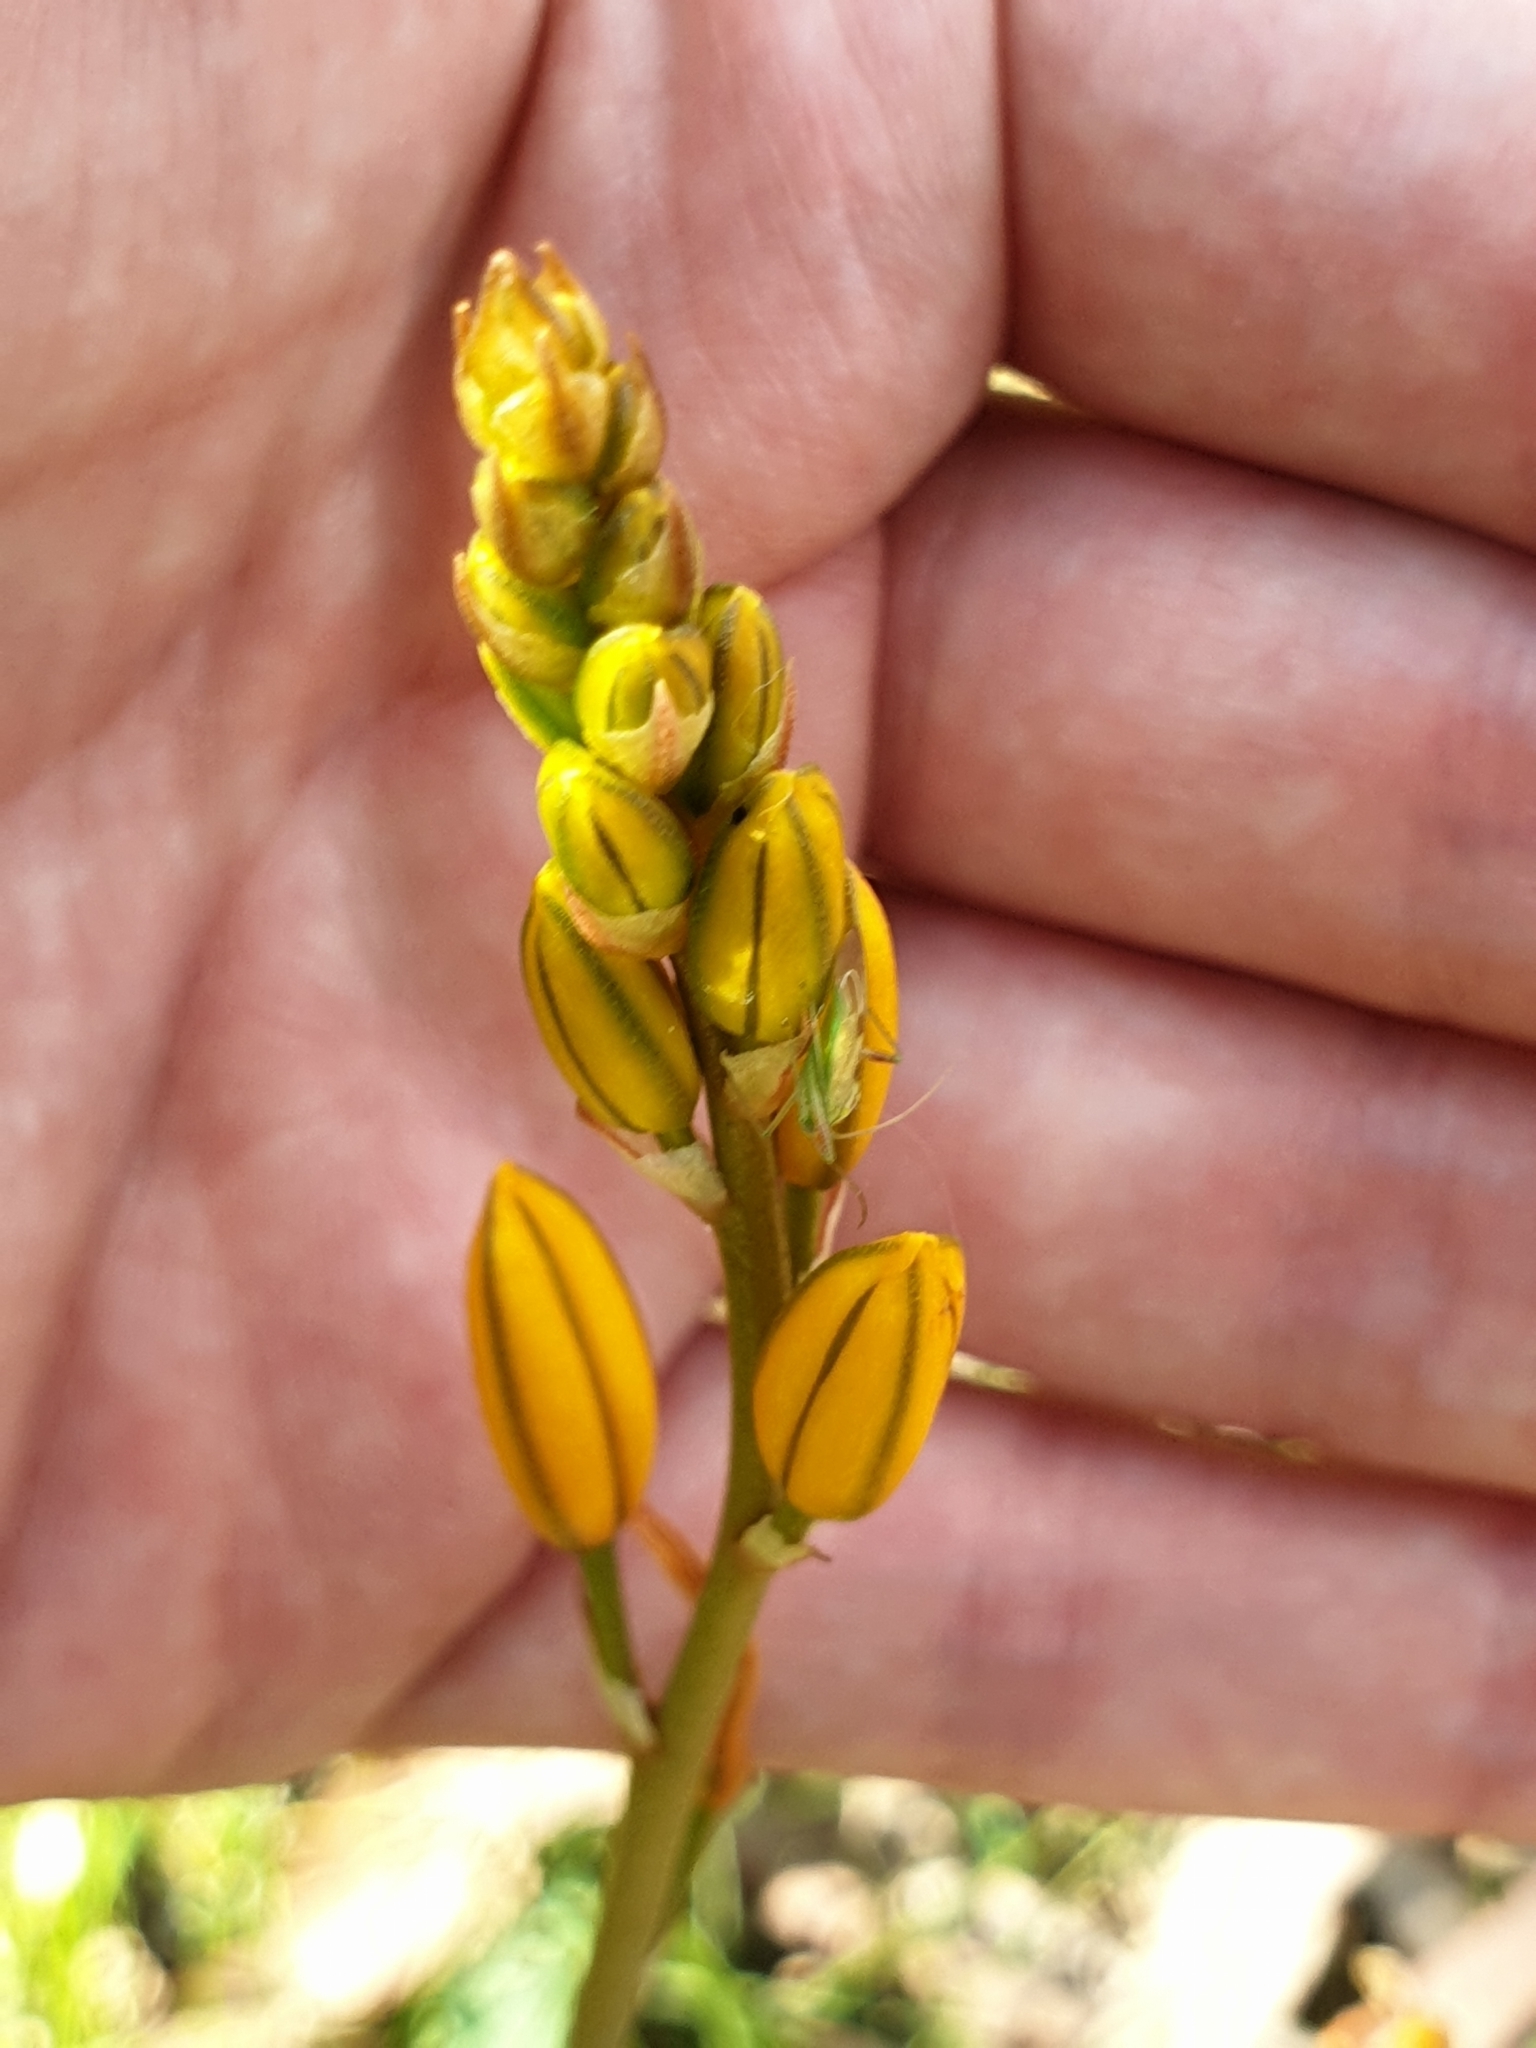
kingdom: Plantae
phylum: Tracheophyta
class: Liliopsida
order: Asparagales
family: Asphodelaceae
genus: Bulbine
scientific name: Bulbine bulbosa
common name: Golden-lily
